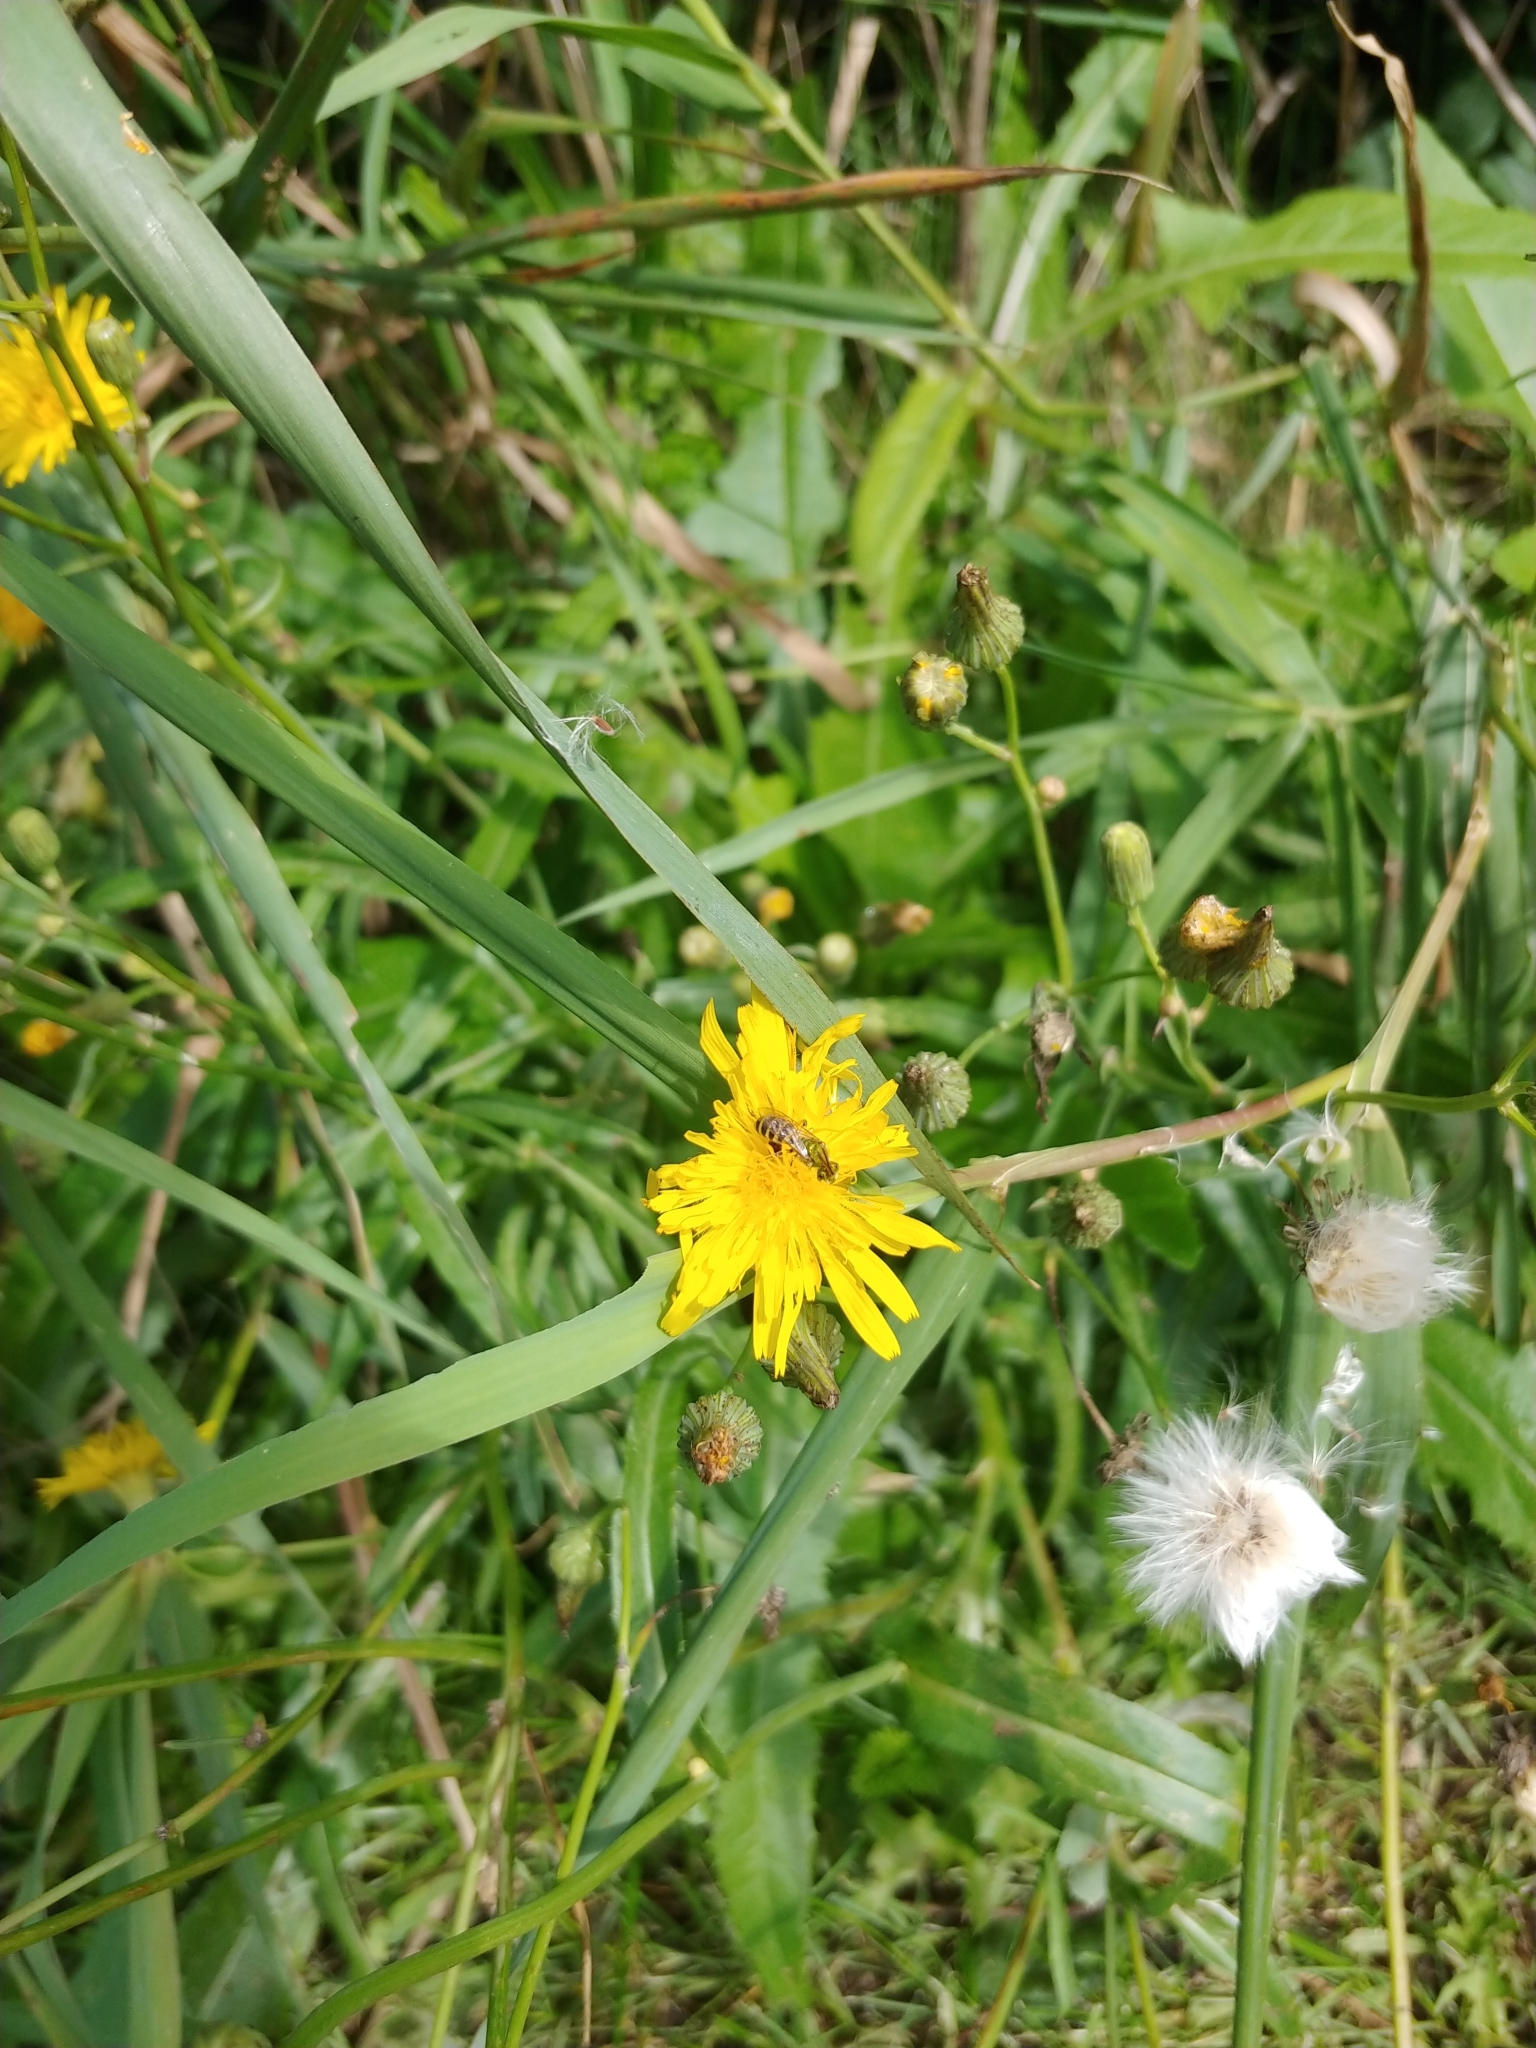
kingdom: Plantae
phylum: Tracheophyta
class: Magnoliopsida
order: Asterales
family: Asteraceae
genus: Sonchus
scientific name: Sonchus arvensis
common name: Perennial sow-thistle
